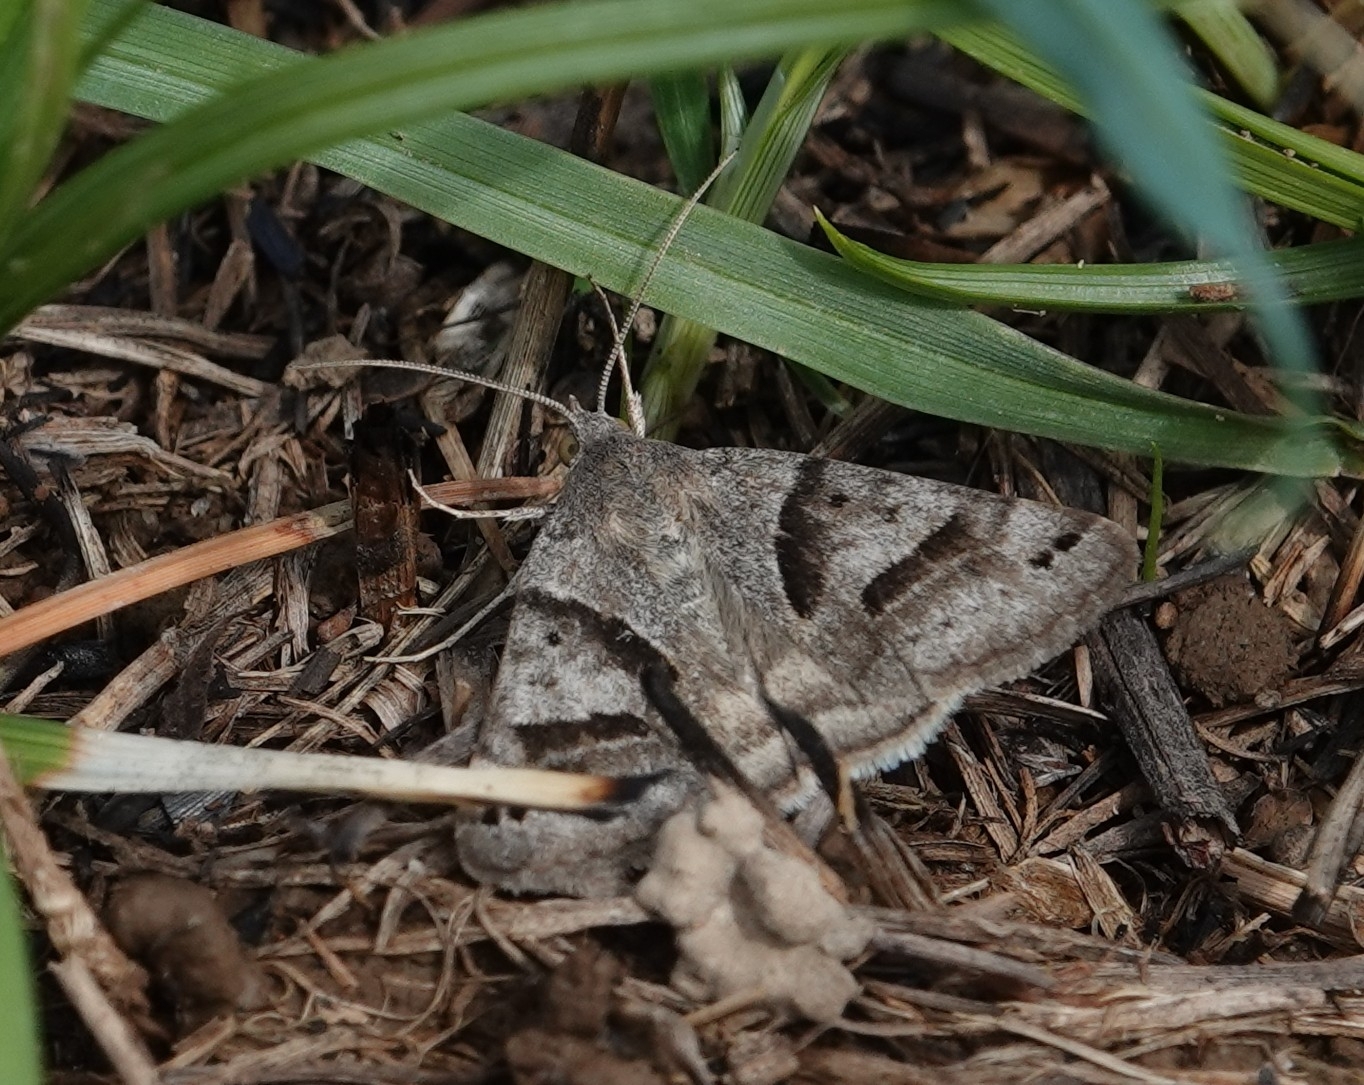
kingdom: Animalia
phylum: Arthropoda
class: Insecta
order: Lepidoptera
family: Erebidae
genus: Caenurgina
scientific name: Caenurgina erechtea
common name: Forage looper moth
